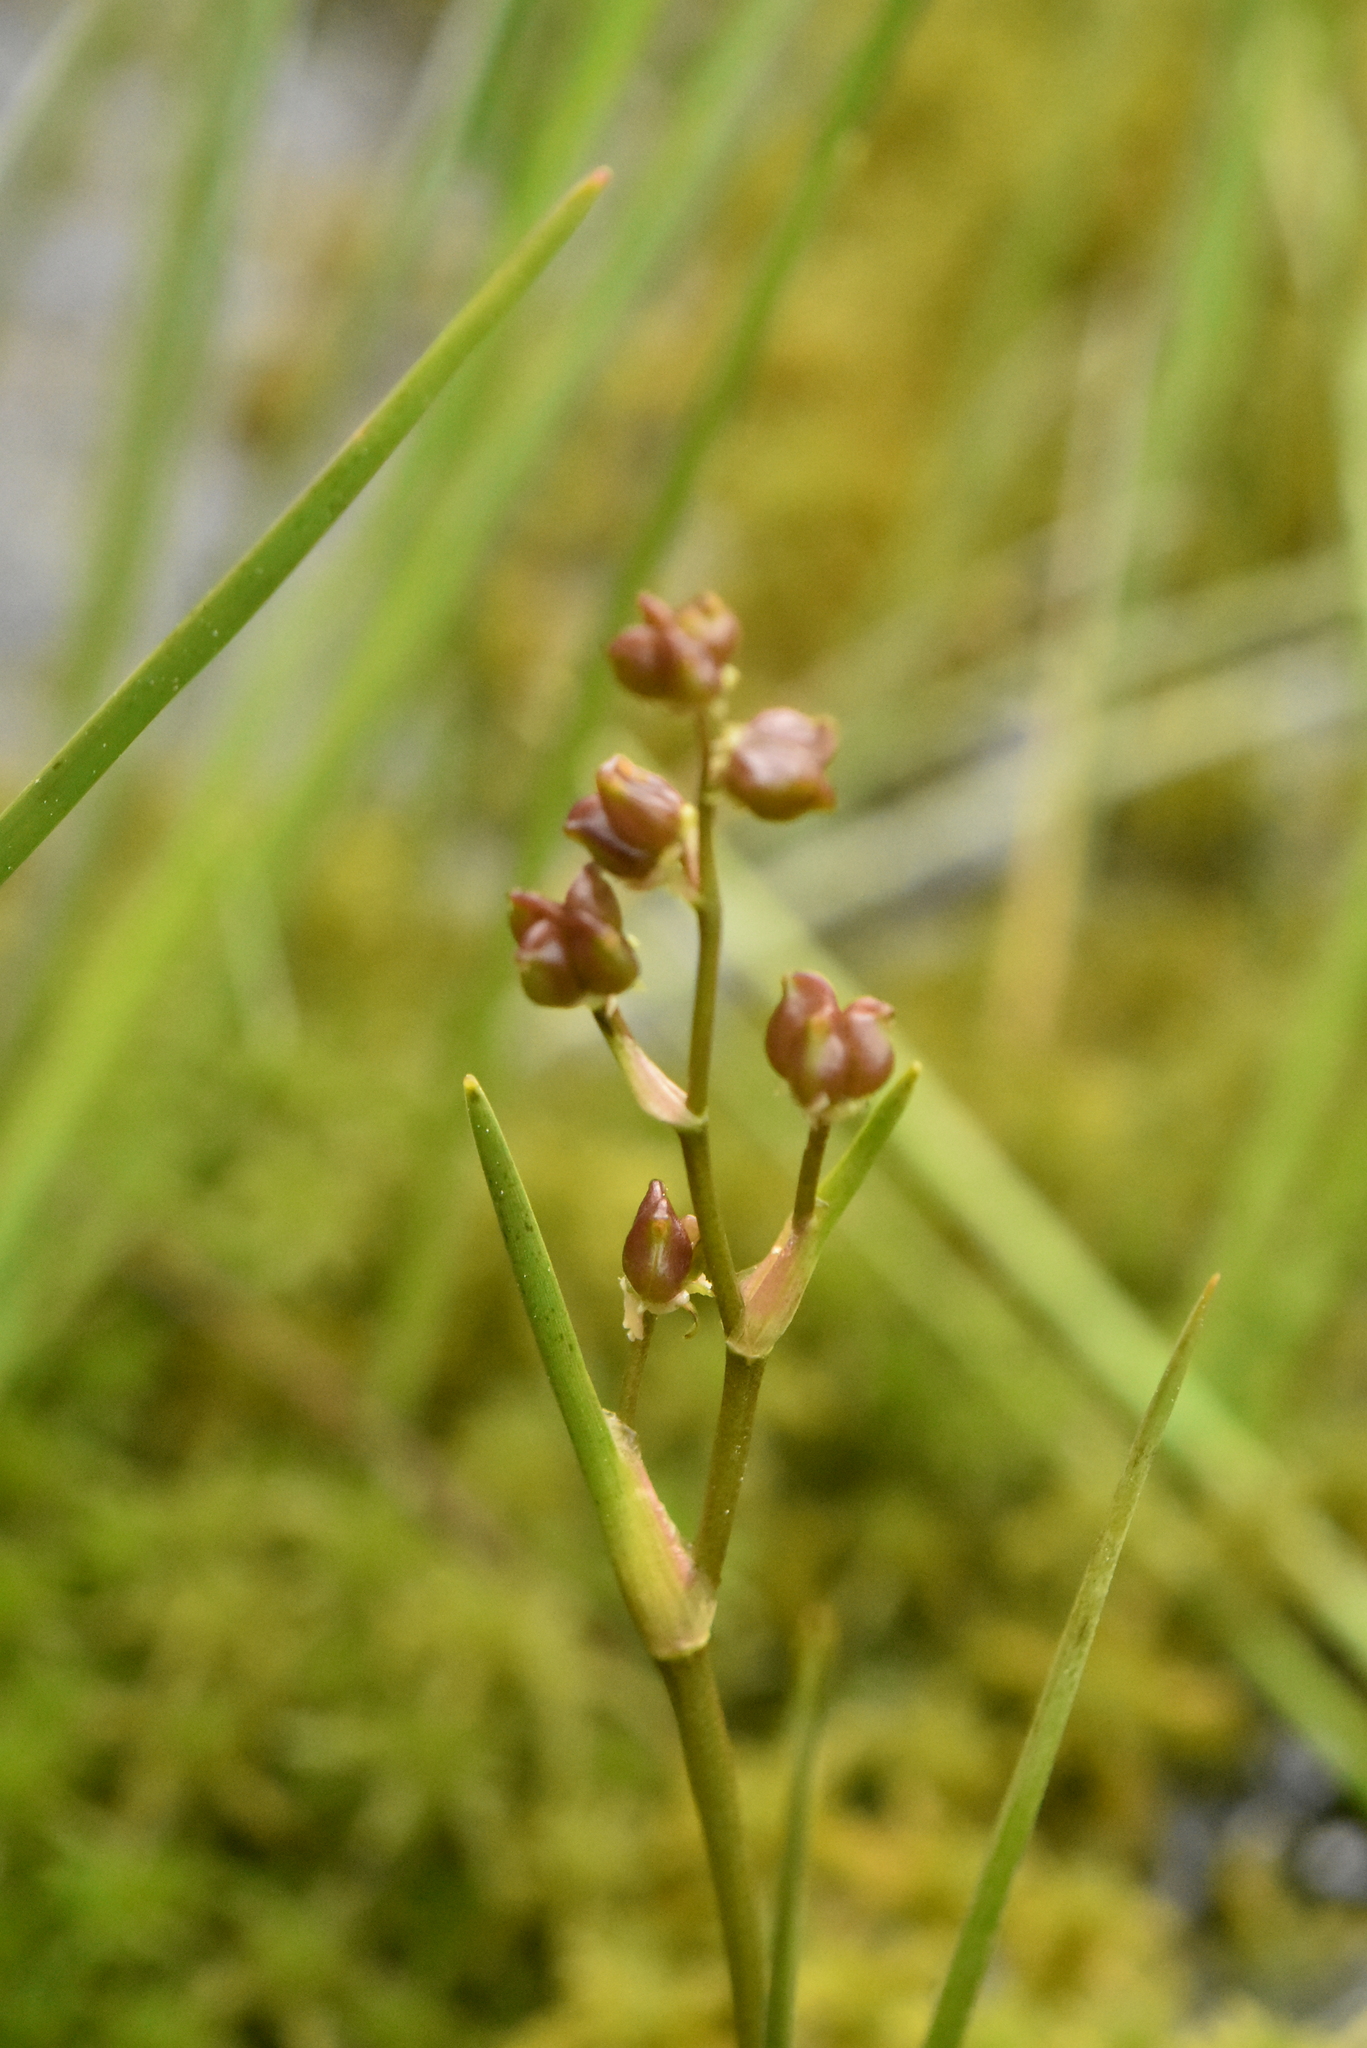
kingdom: Plantae
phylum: Tracheophyta
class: Liliopsida
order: Alismatales
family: Scheuchzeriaceae
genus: Scheuchzeria
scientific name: Scheuchzeria palustris
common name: Rannoch-rush
